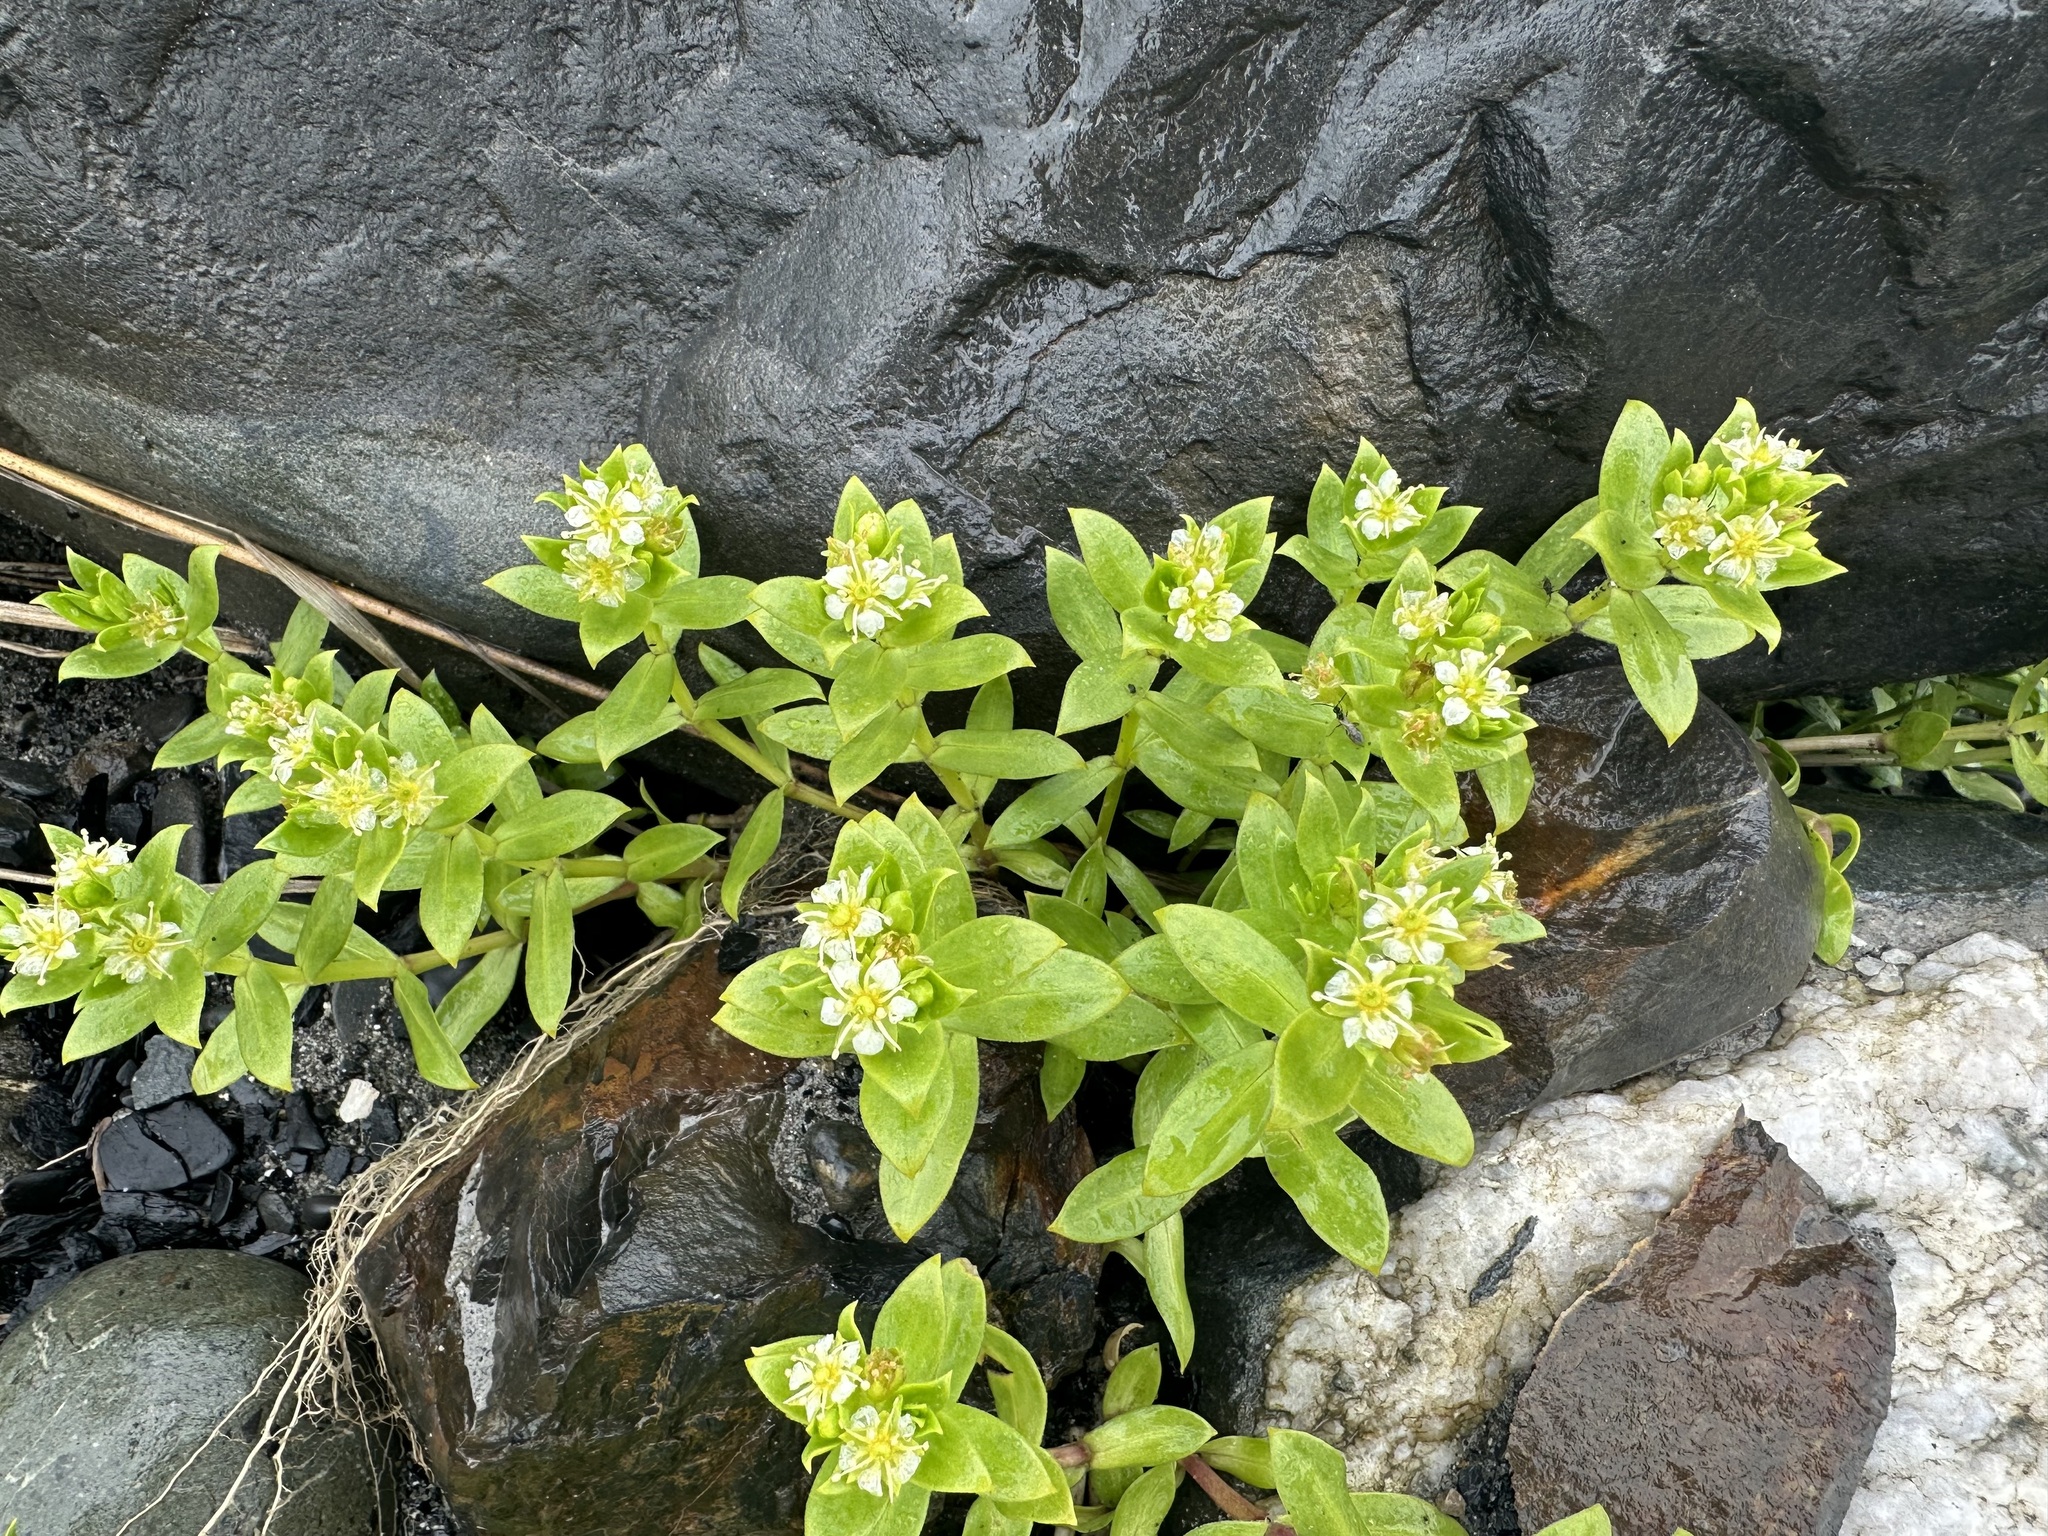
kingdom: Plantae
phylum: Tracheophyta
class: Magnoliopsida
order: Caryophyllales
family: Caryophyllaceae
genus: Honckenya
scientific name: Honckenya peploides
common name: Sea sandwort
